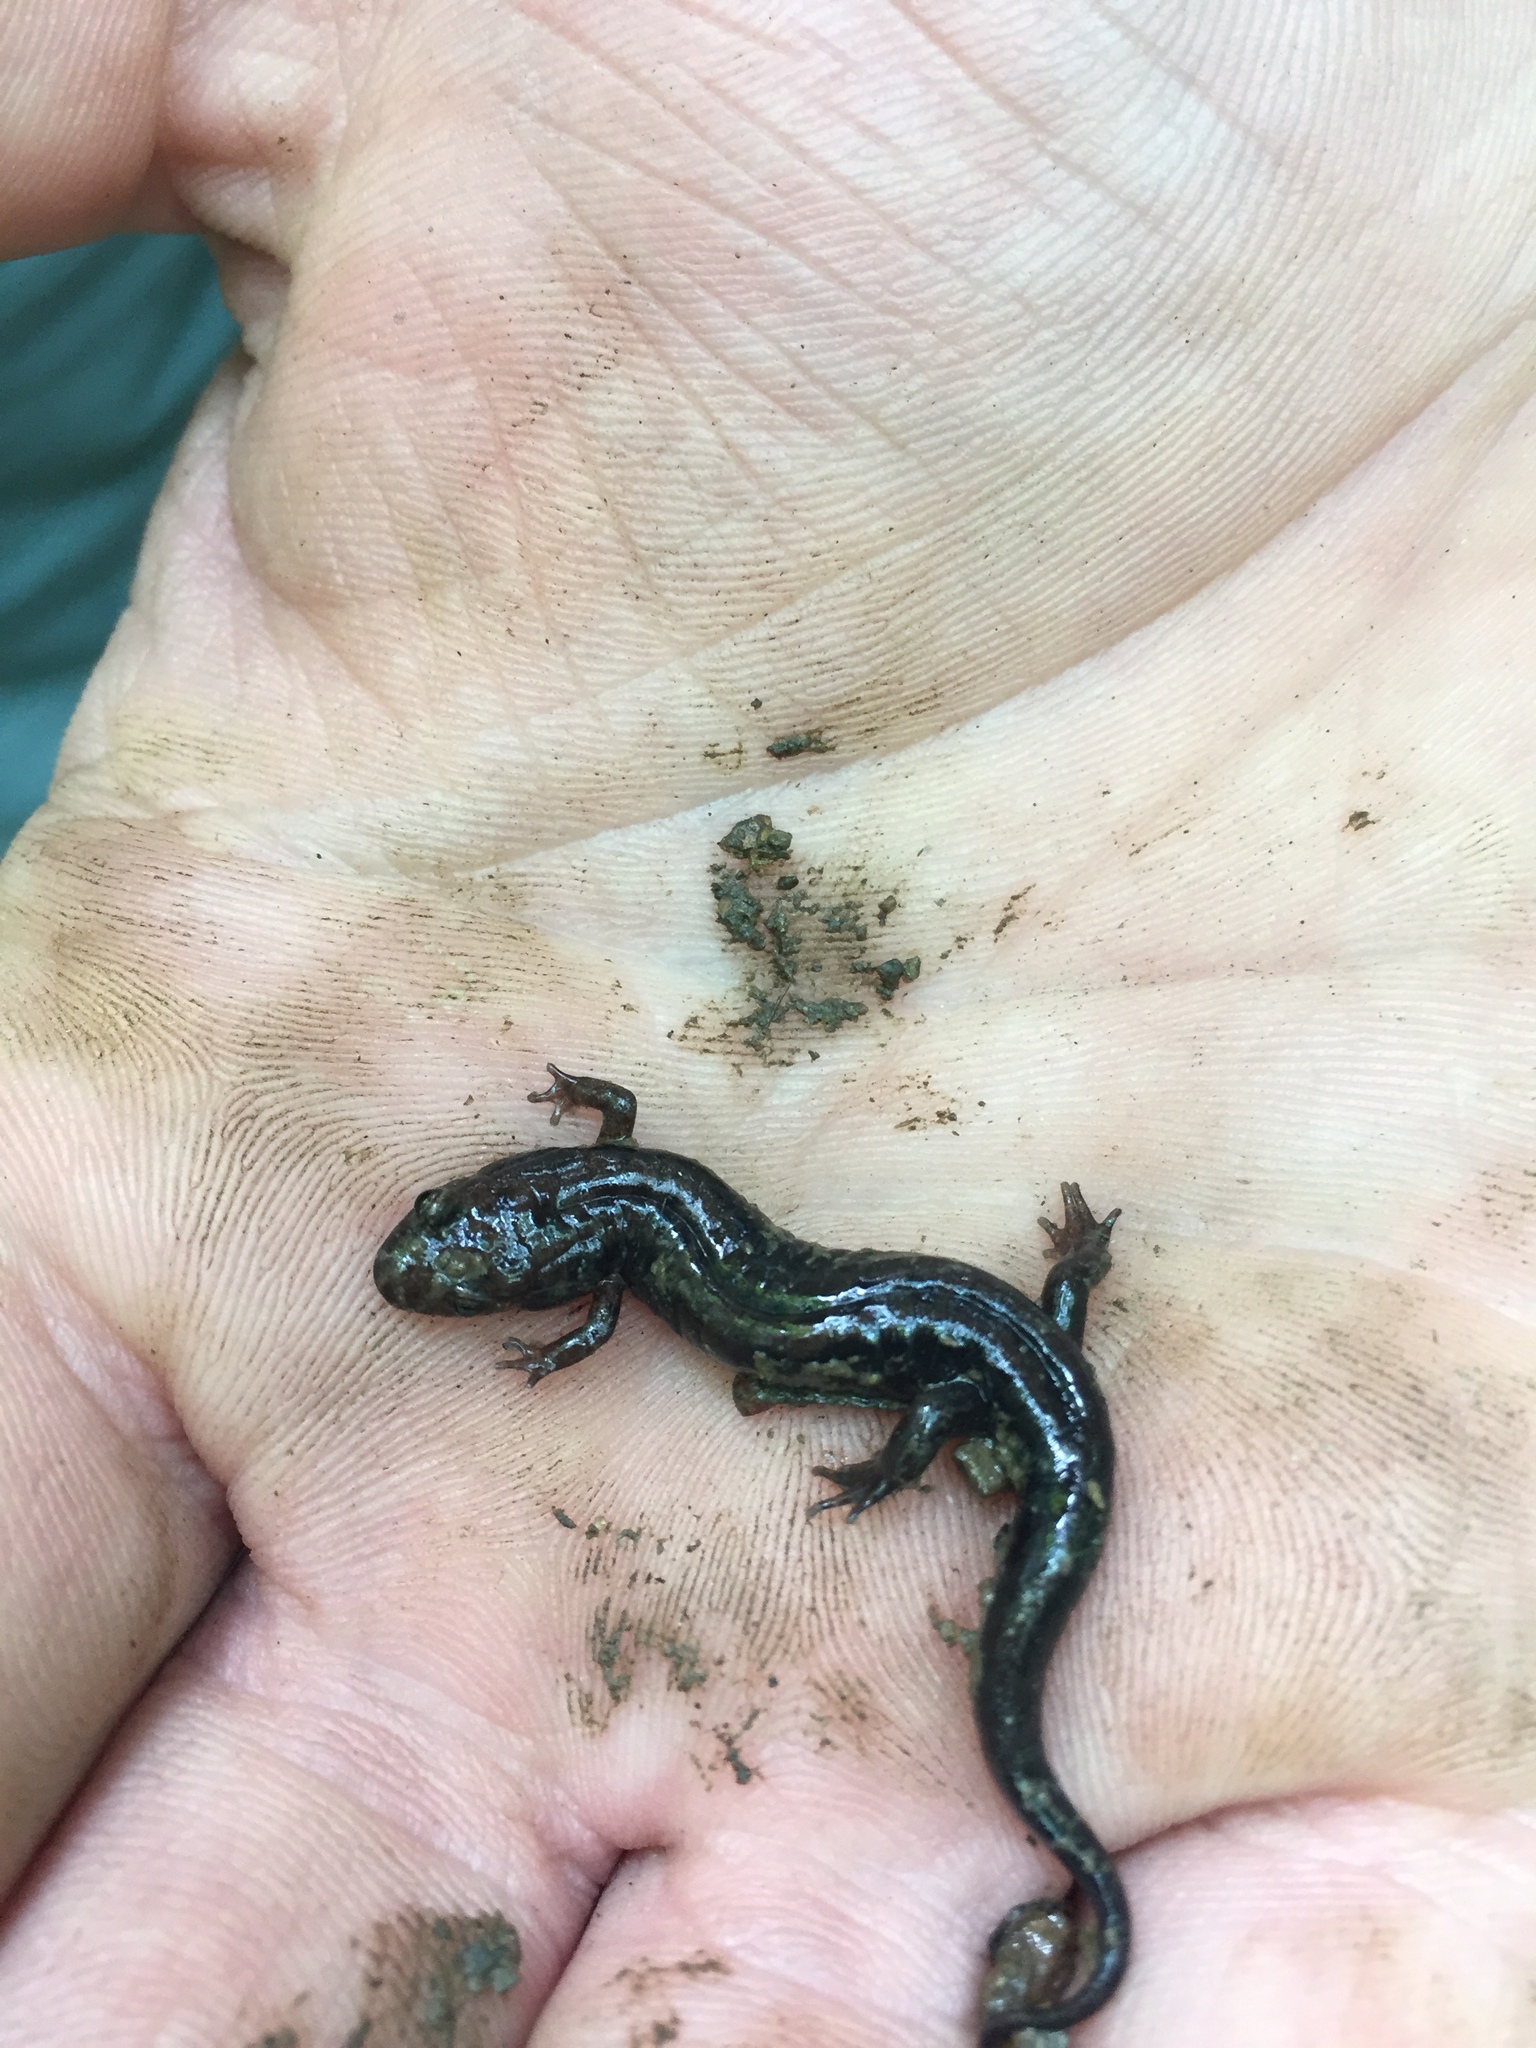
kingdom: Animalia
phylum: Chordata
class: Amphibia
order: Caudata
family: Plethodontidae
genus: Desmognathus
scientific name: Desmognathus ochrophaeus
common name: Allegheny mountain dusky salamander
